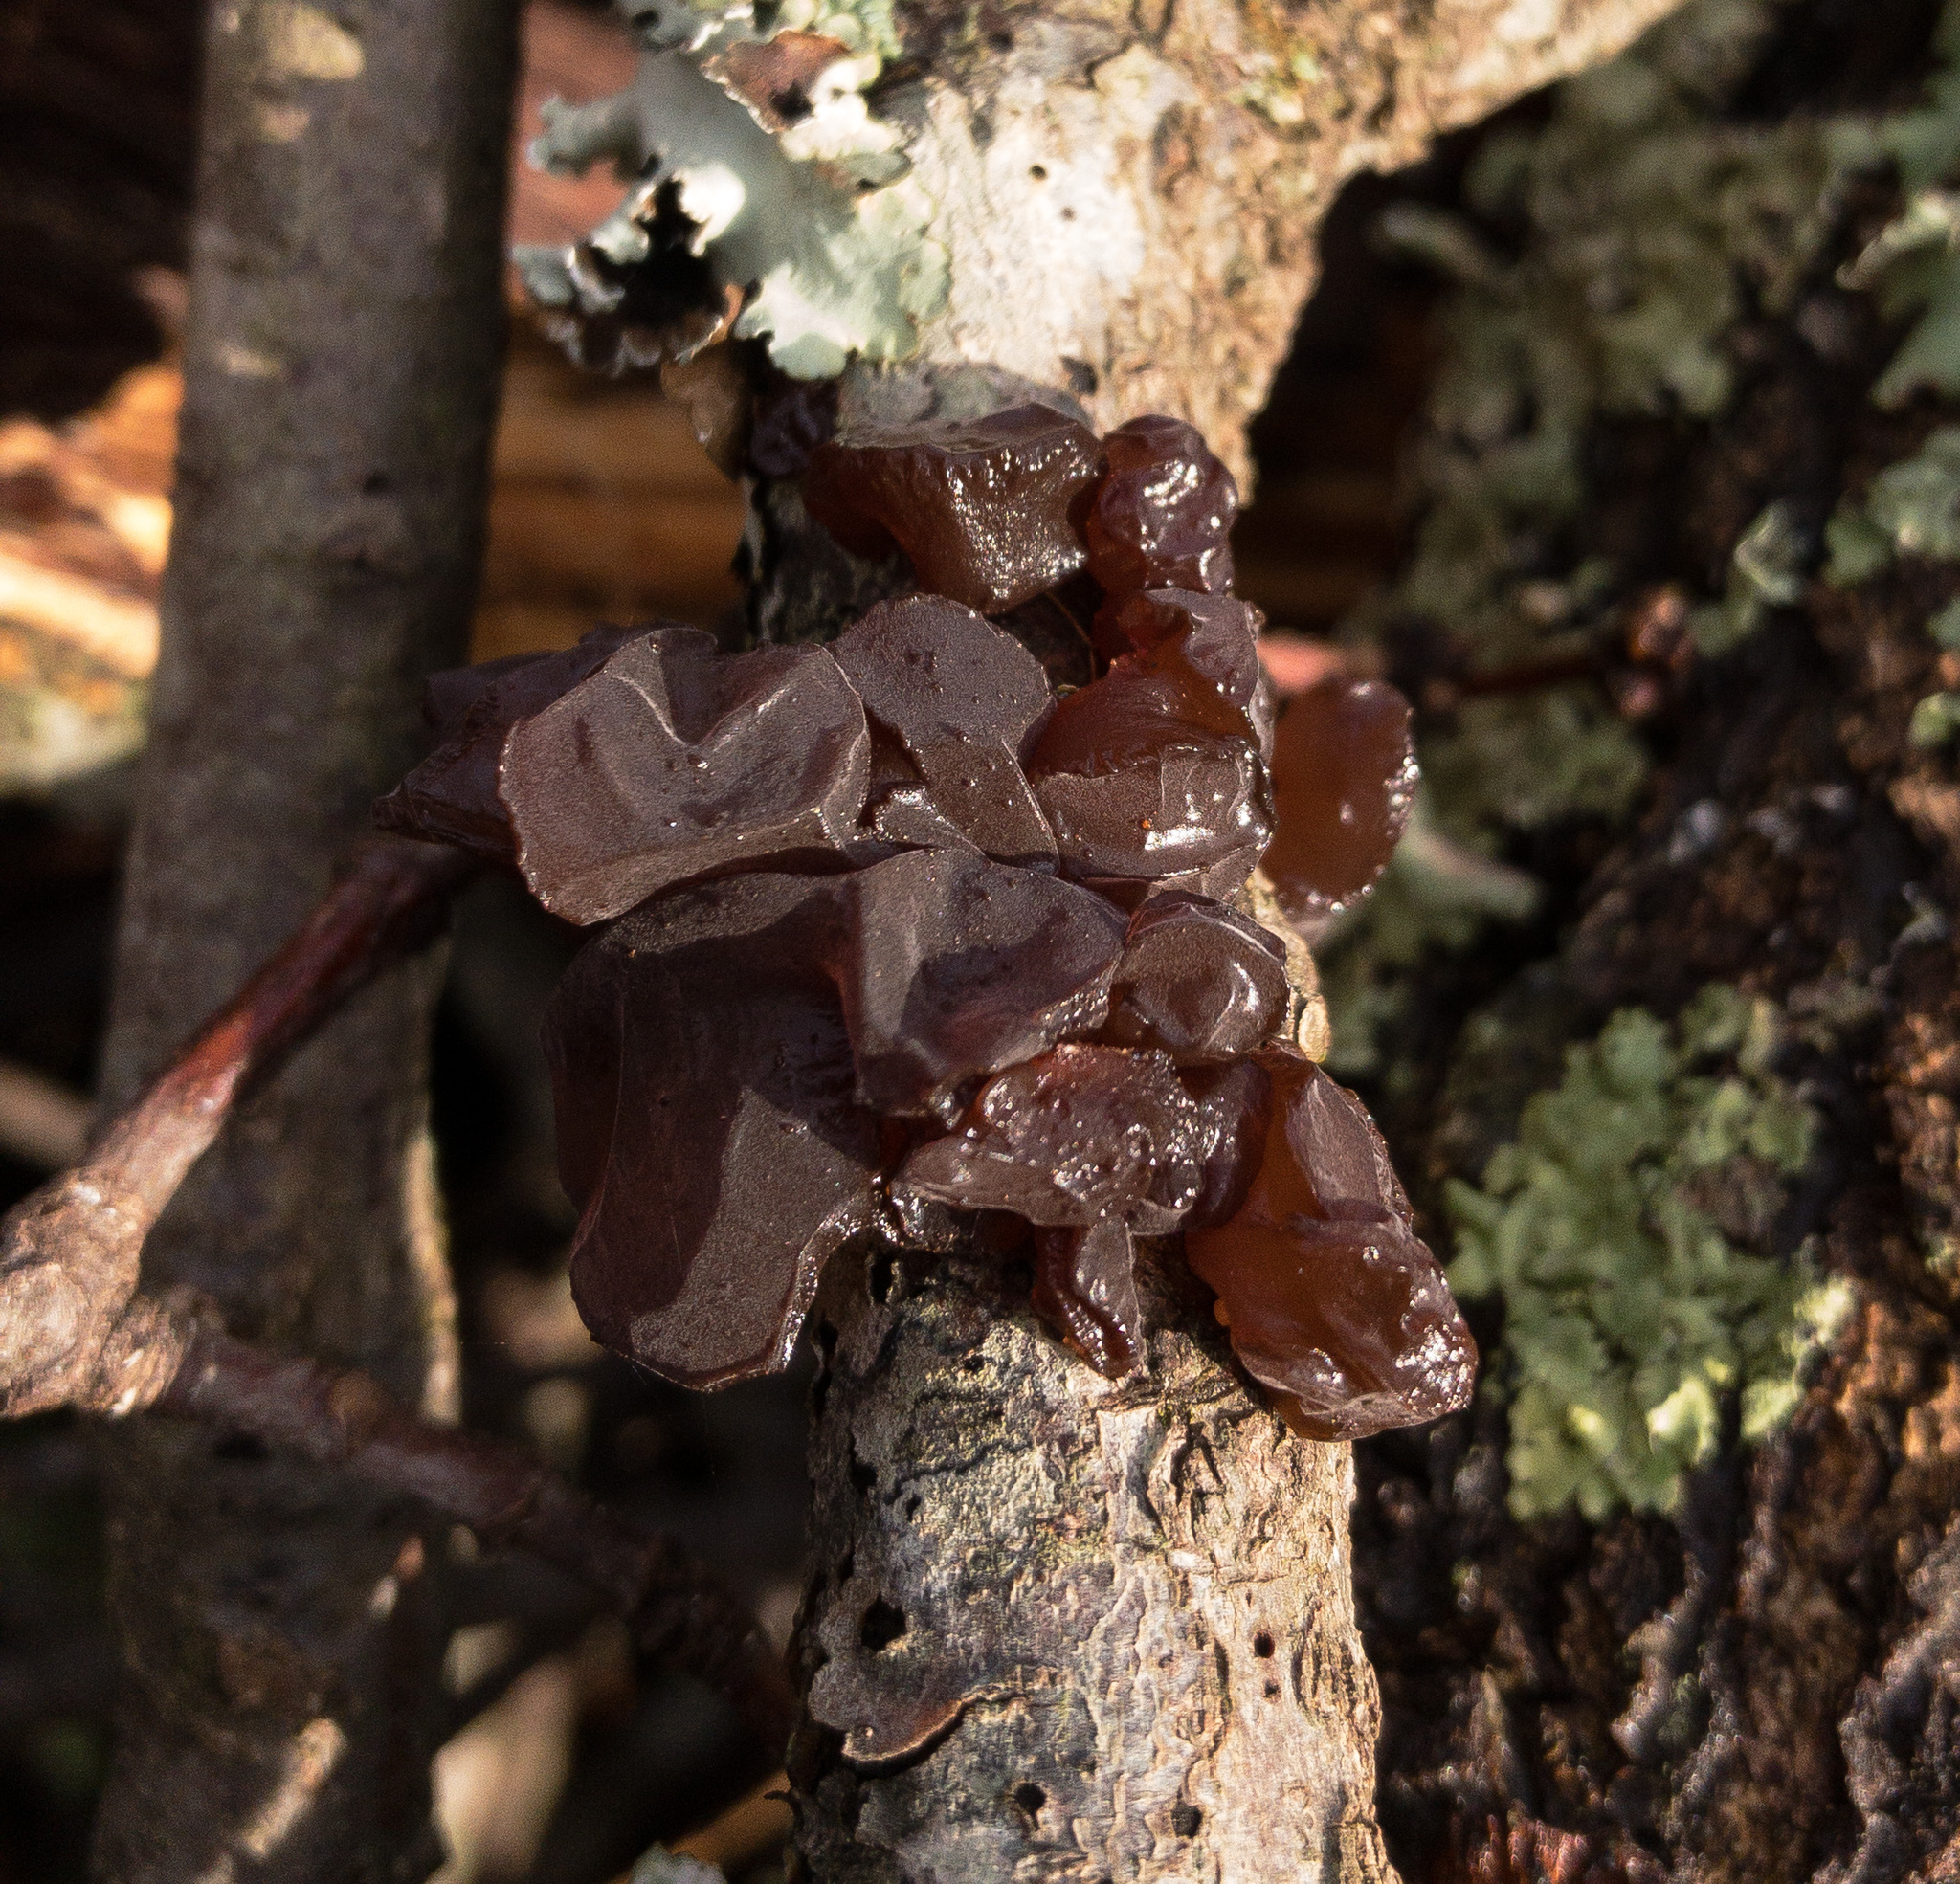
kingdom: Fungi
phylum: Basidiomycota
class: Agaricomycetes
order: Auriculariales
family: Auriculariaceae
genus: Exidia
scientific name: Exidia recisa
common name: Amber jelly
